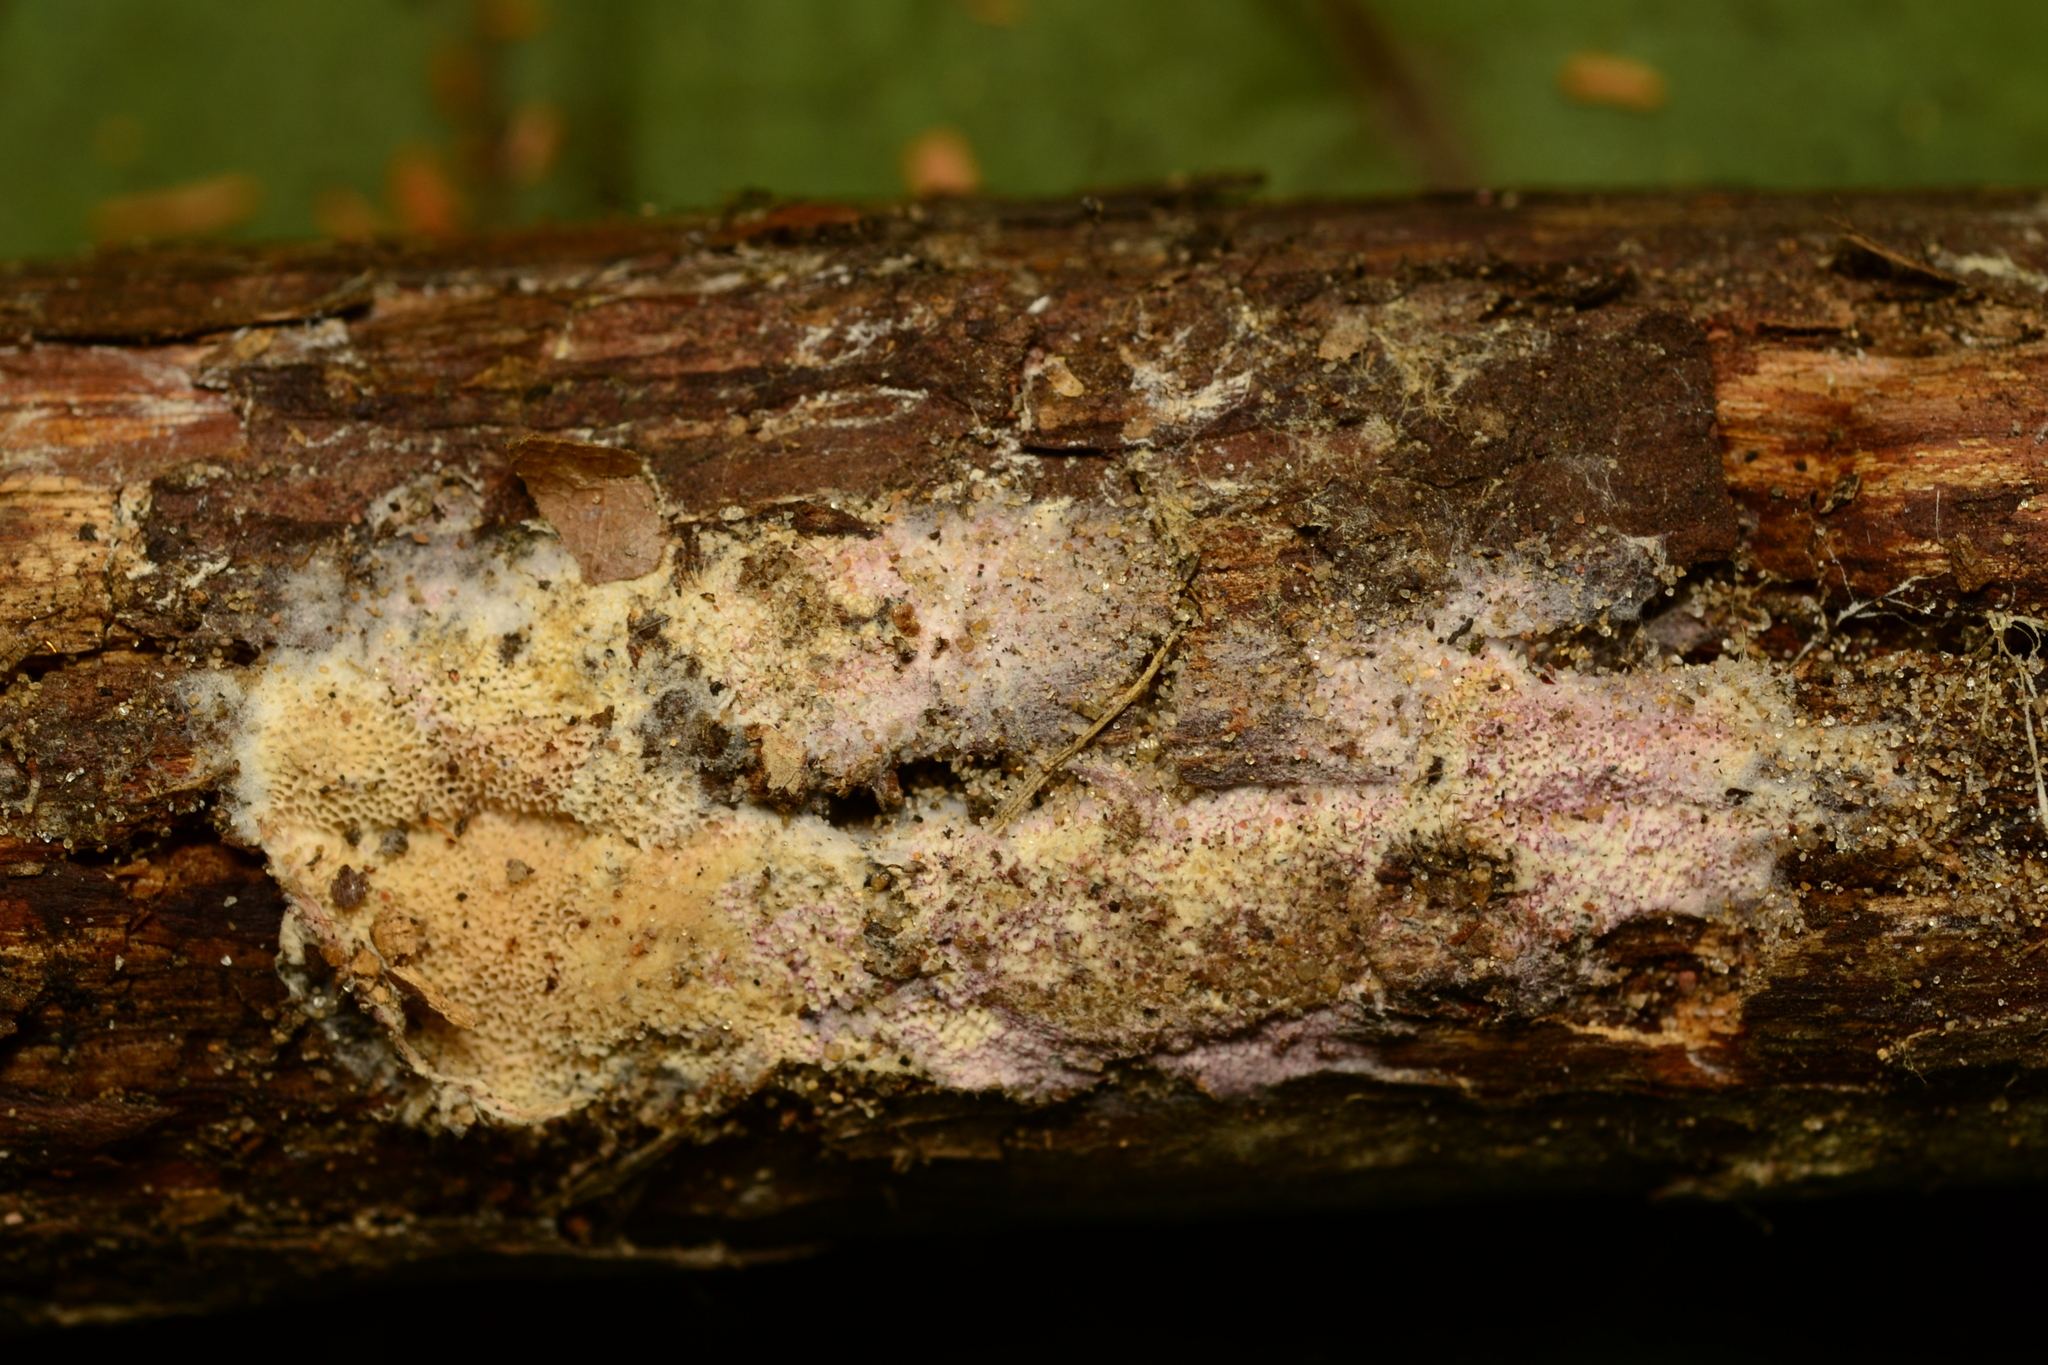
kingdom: Fungi
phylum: Basidiomycota
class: Agaricomycetes
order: Polyporales
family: Irpicaceae
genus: Ceriporia
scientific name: Ceriporia tarda
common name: Mauve waxpore
